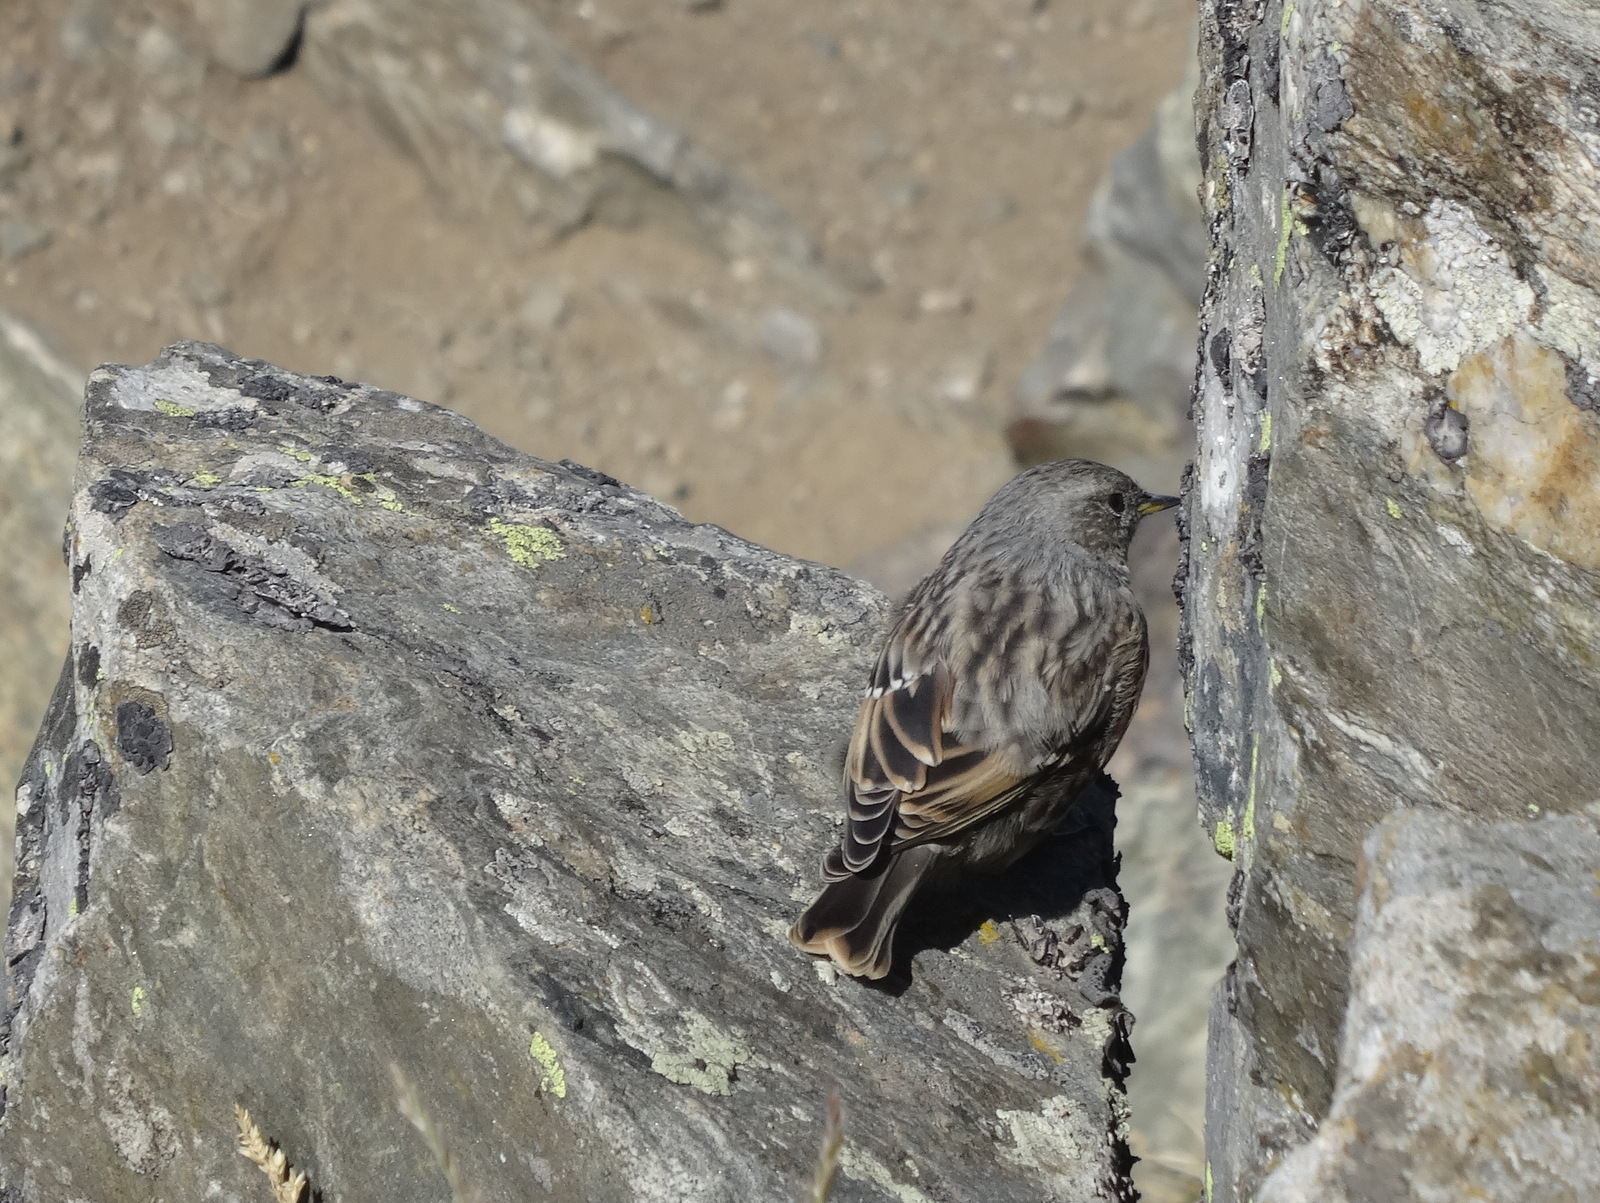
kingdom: Animalia
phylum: Chordata
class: Aves
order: Passeriformes
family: Prunellidae
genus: Prunella
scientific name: Prunella collaris
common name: Alpine accentor
